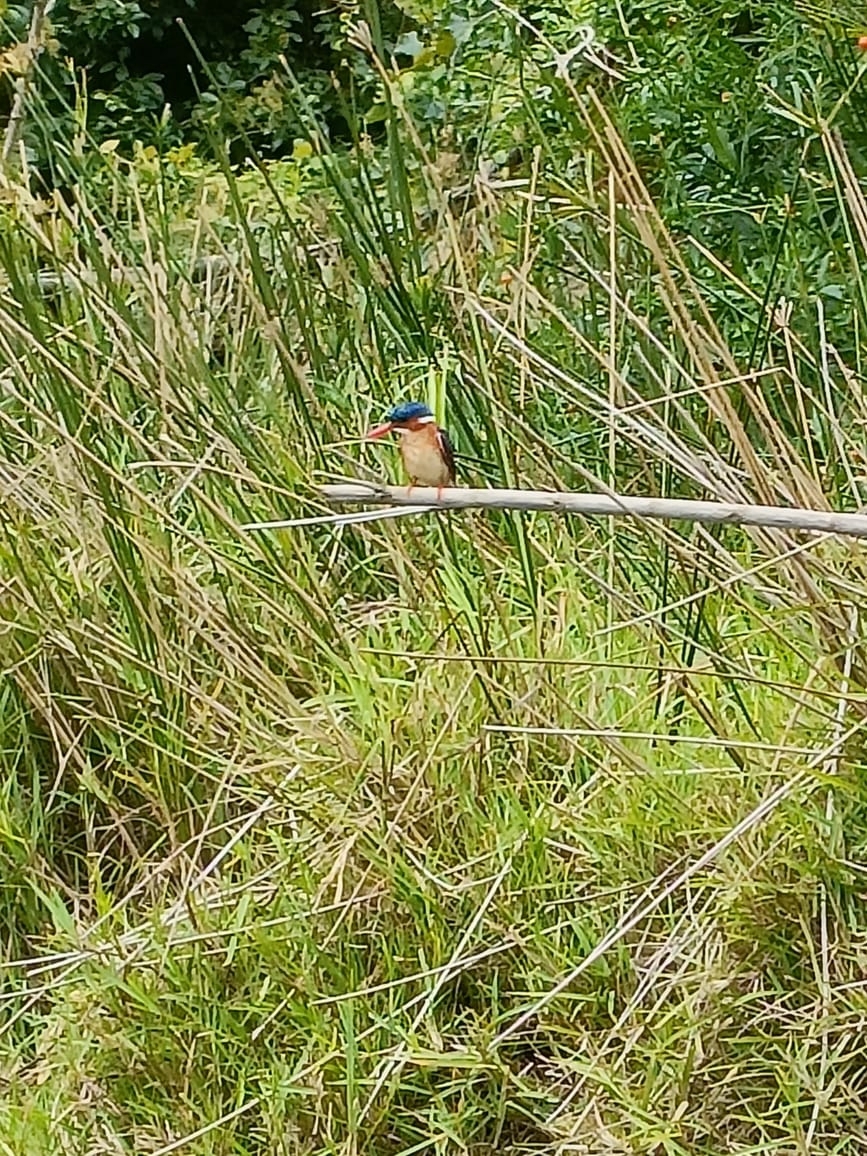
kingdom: Animalia
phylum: Chordata
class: Aves
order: Coraciiformes
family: Alcedinidae
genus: Corythornis
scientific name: Corythornis cristatus
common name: Malachite kingfisher
